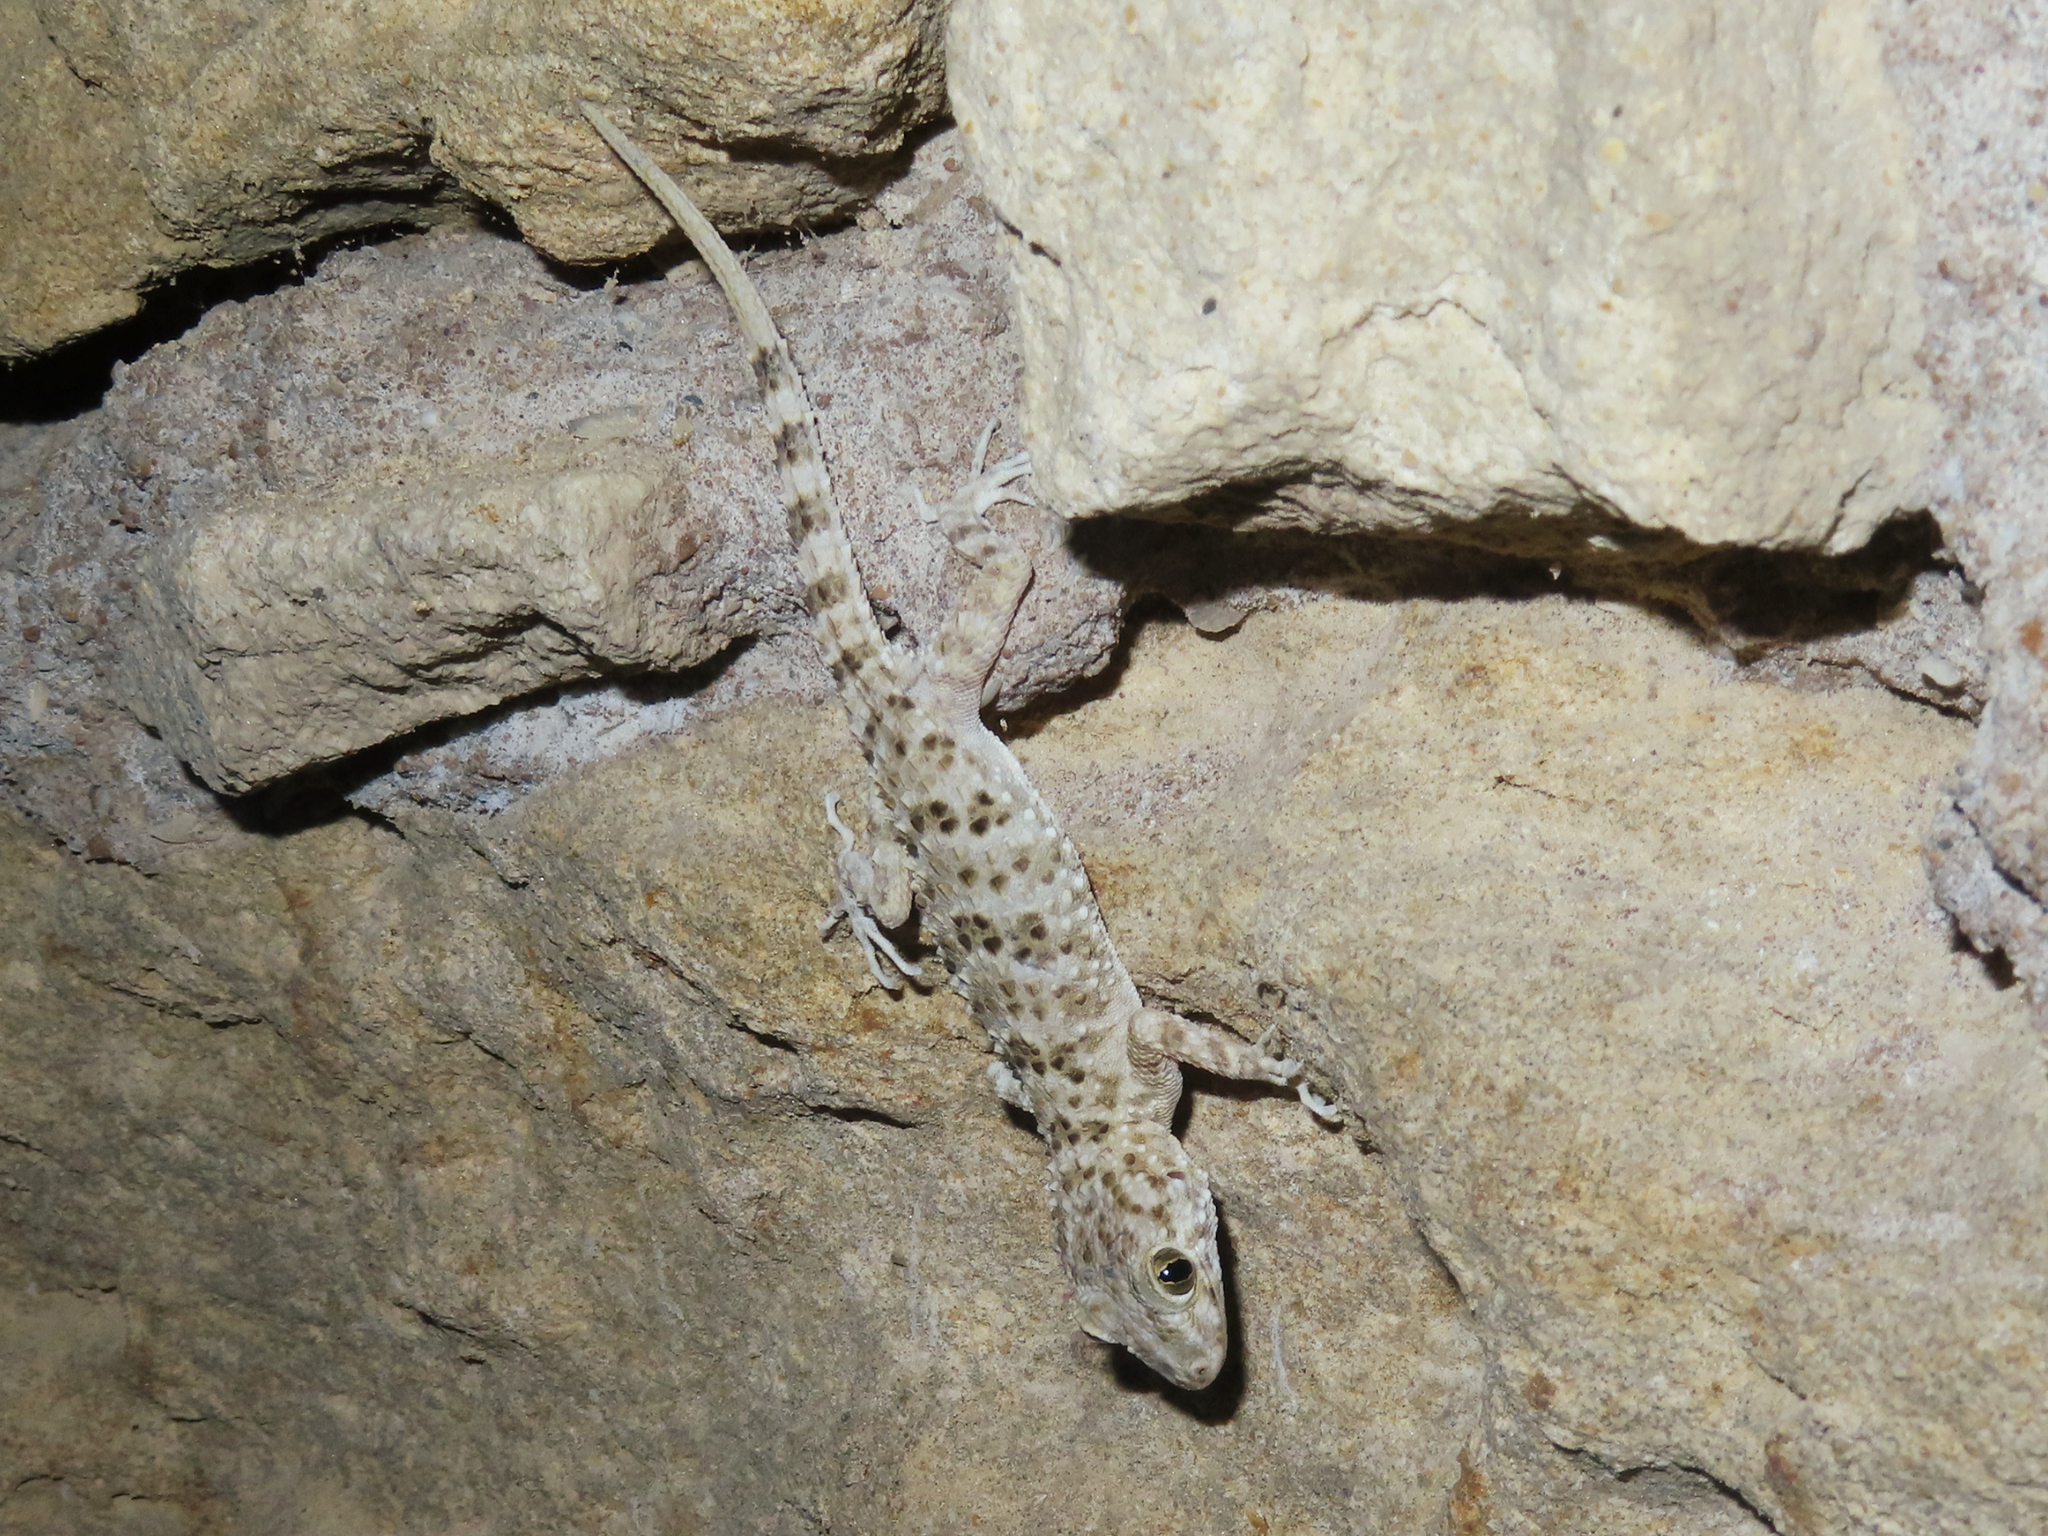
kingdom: Animalia
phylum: Chordata
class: Squamata
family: Gekkonidae
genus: Tenuidactylus
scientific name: Tenuidactylus caspius
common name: Caspian bent-toed gecko
